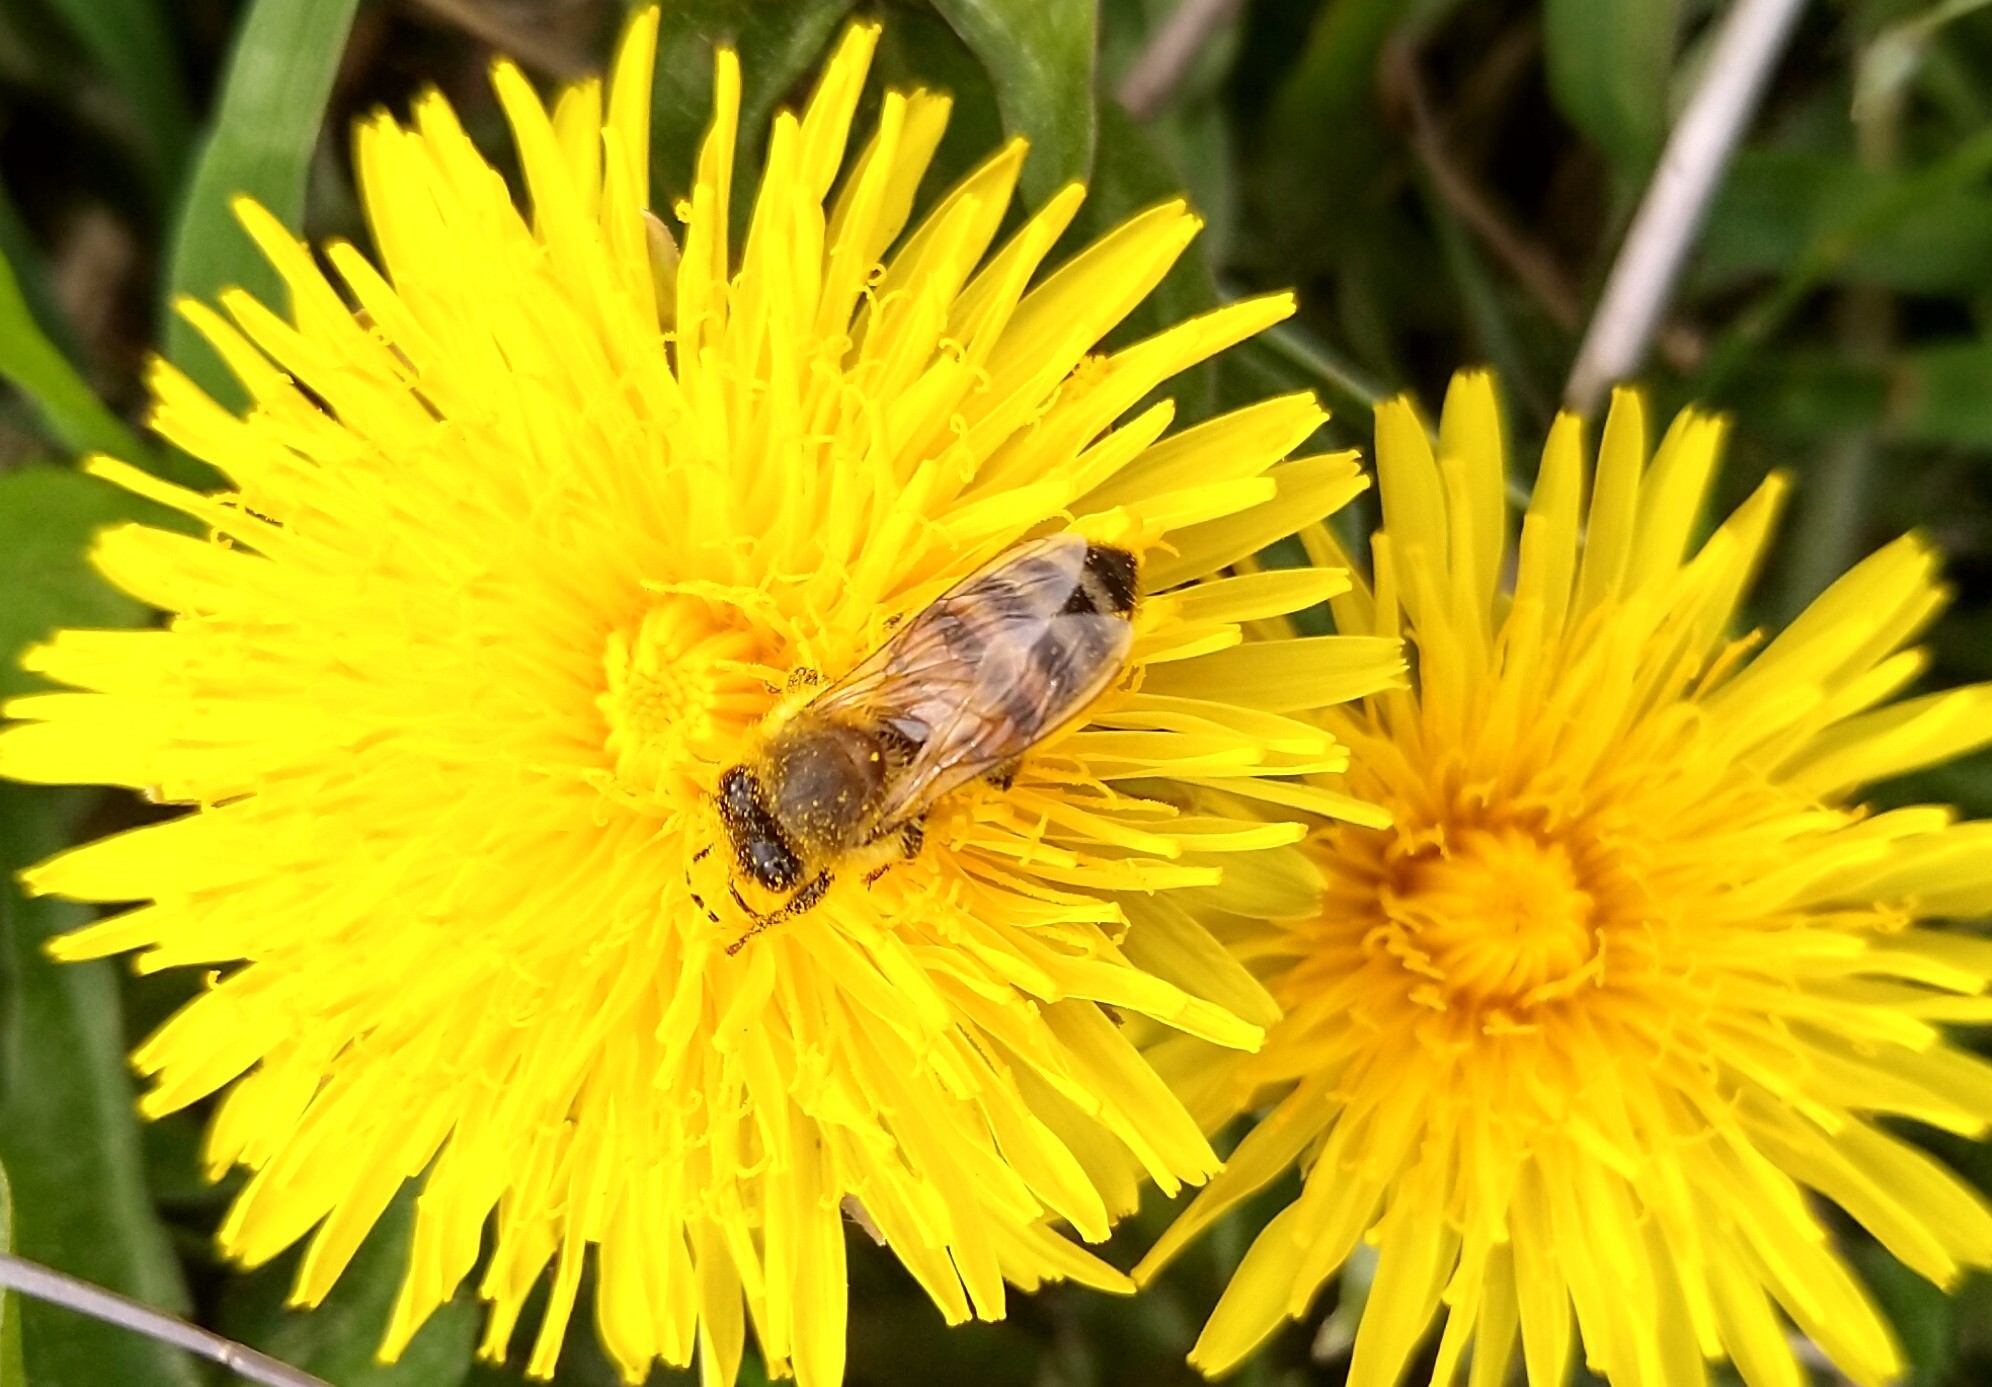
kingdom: Animalia
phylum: Arthropoda
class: Insecta
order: Hymenoptera
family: Apidae
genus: Apis
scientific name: Apis mellifera
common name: Honey bee
